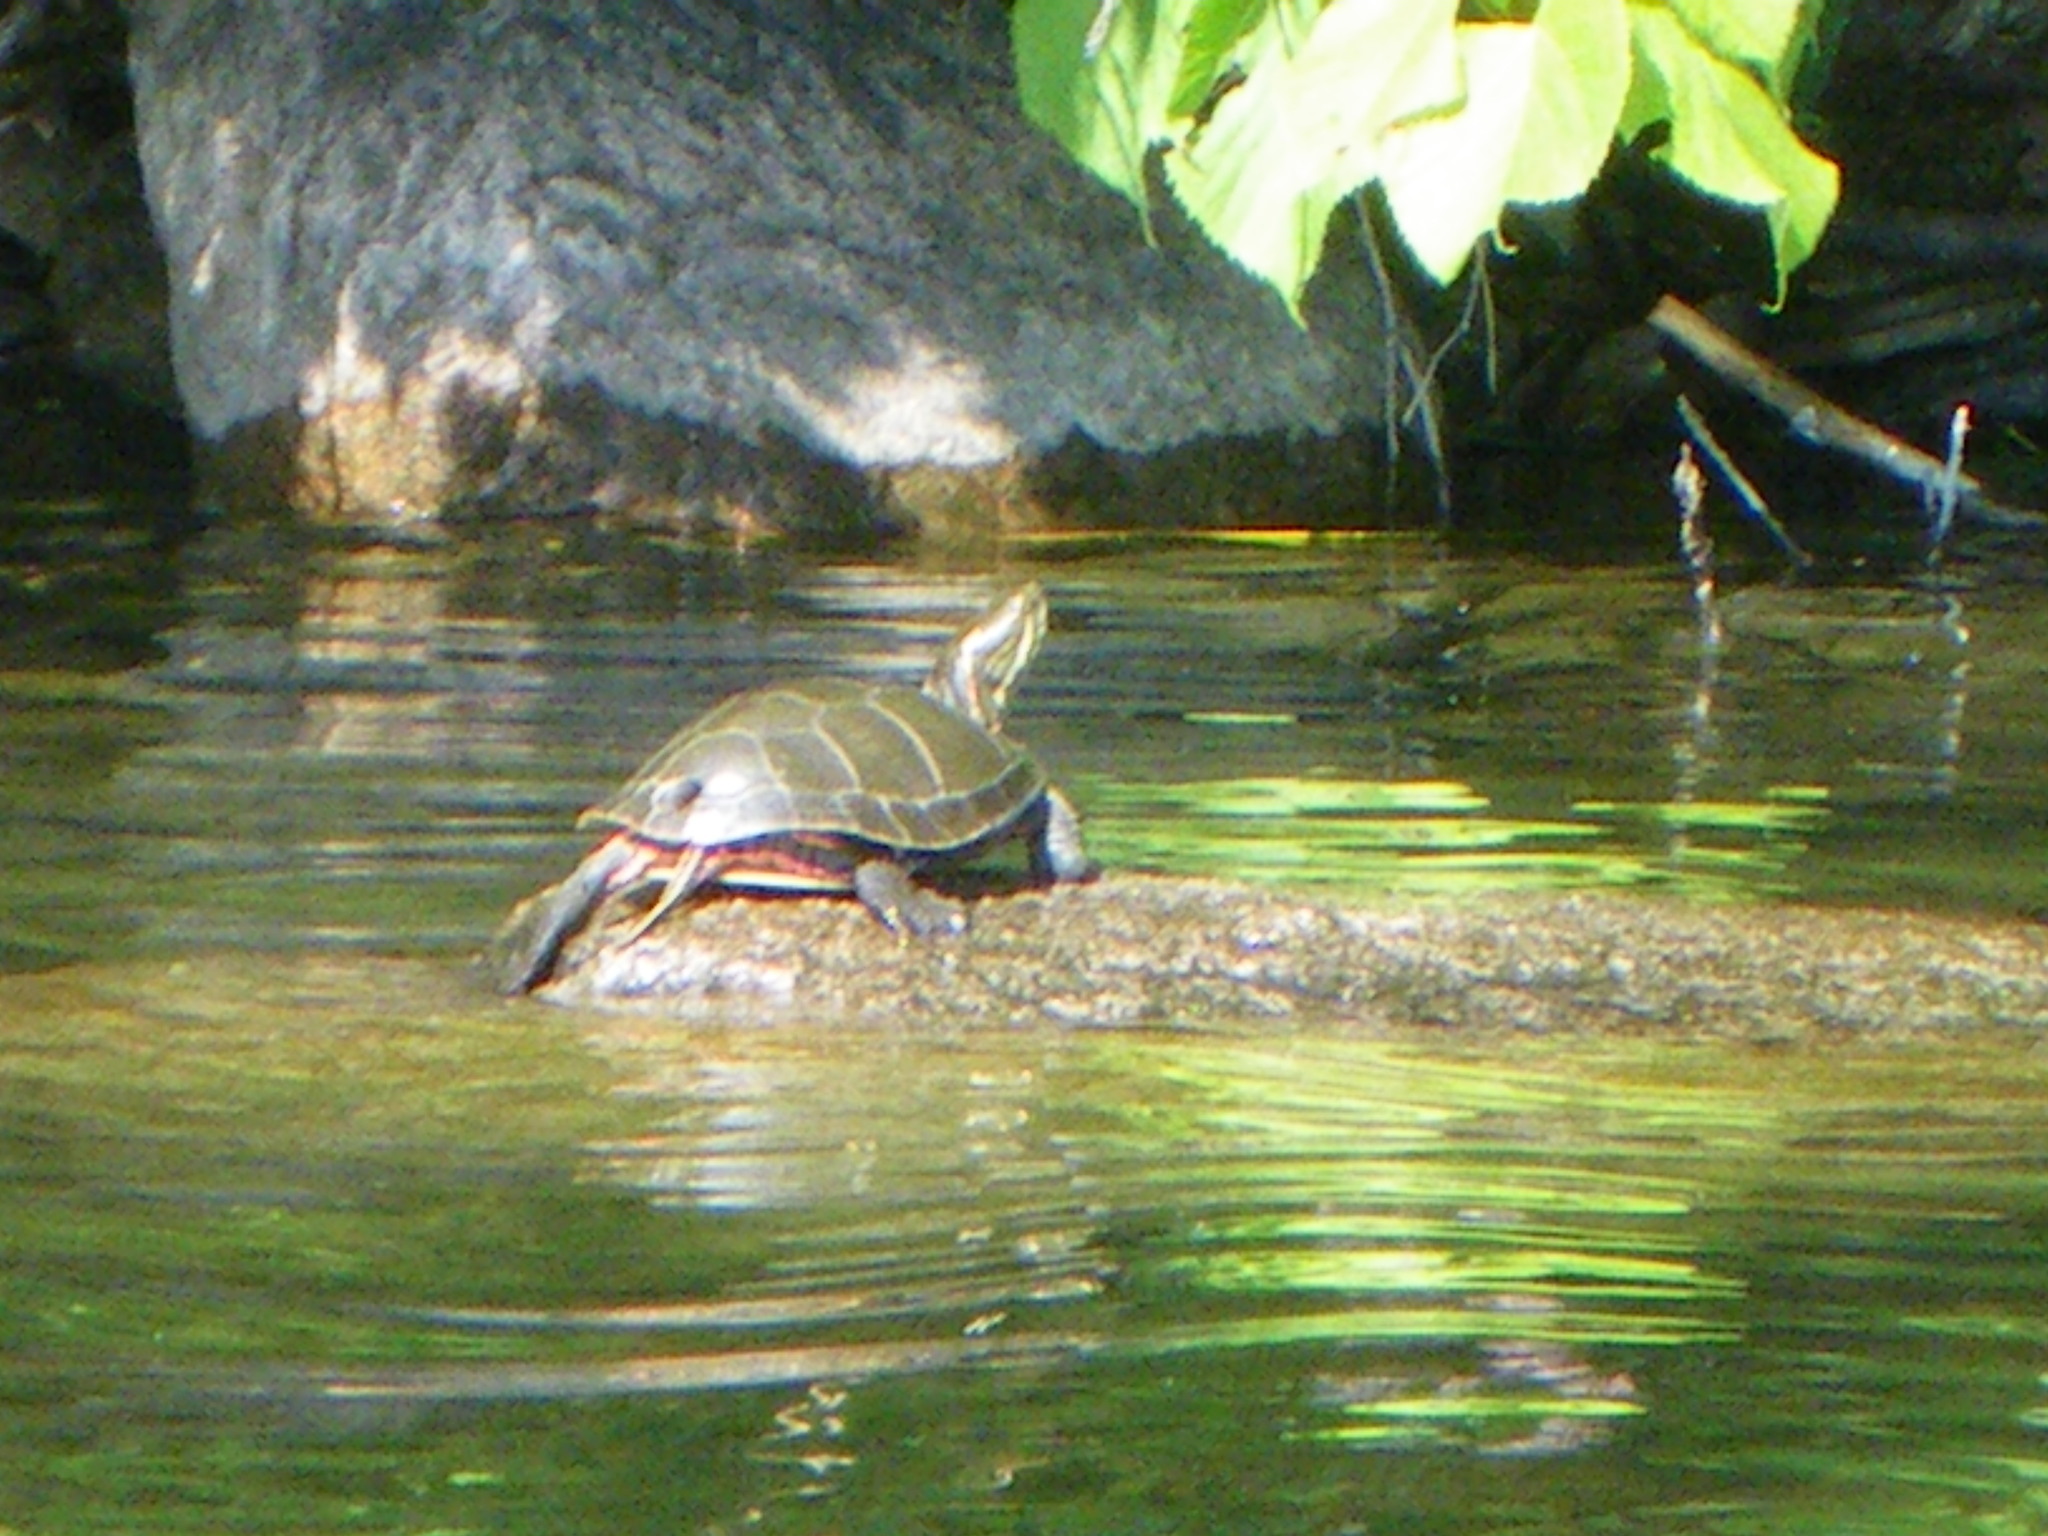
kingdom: Animalia
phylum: Chordata
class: Testudines
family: Emydidae
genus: Chrysemys
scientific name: Chrysemys picta
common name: Painted turtle
